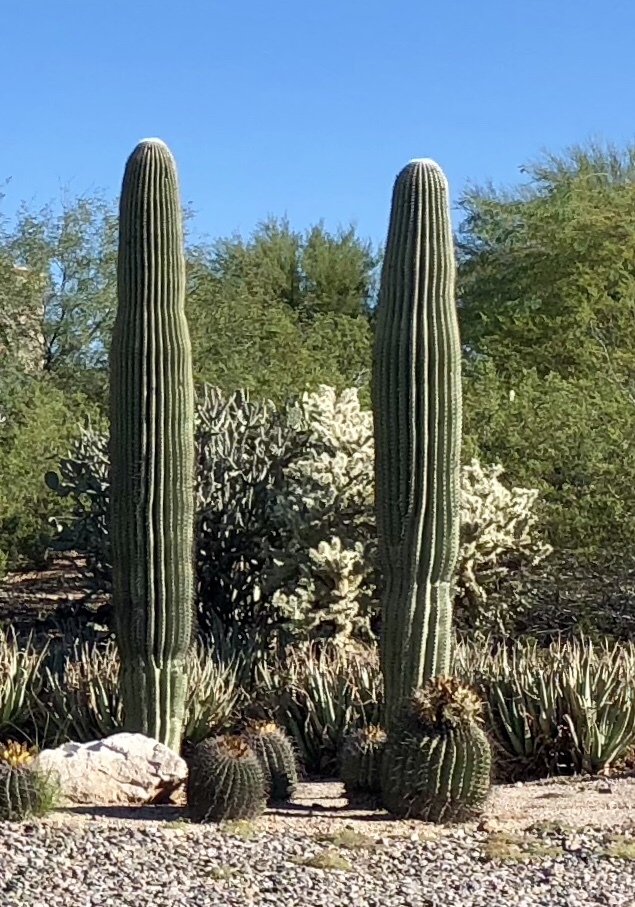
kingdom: Plantae
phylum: Tracheophyta
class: Magnoliopsida
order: Caryophyllales
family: Cactaceae
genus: Carnegiea
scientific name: Carnegiea gigantea
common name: Saguaro
